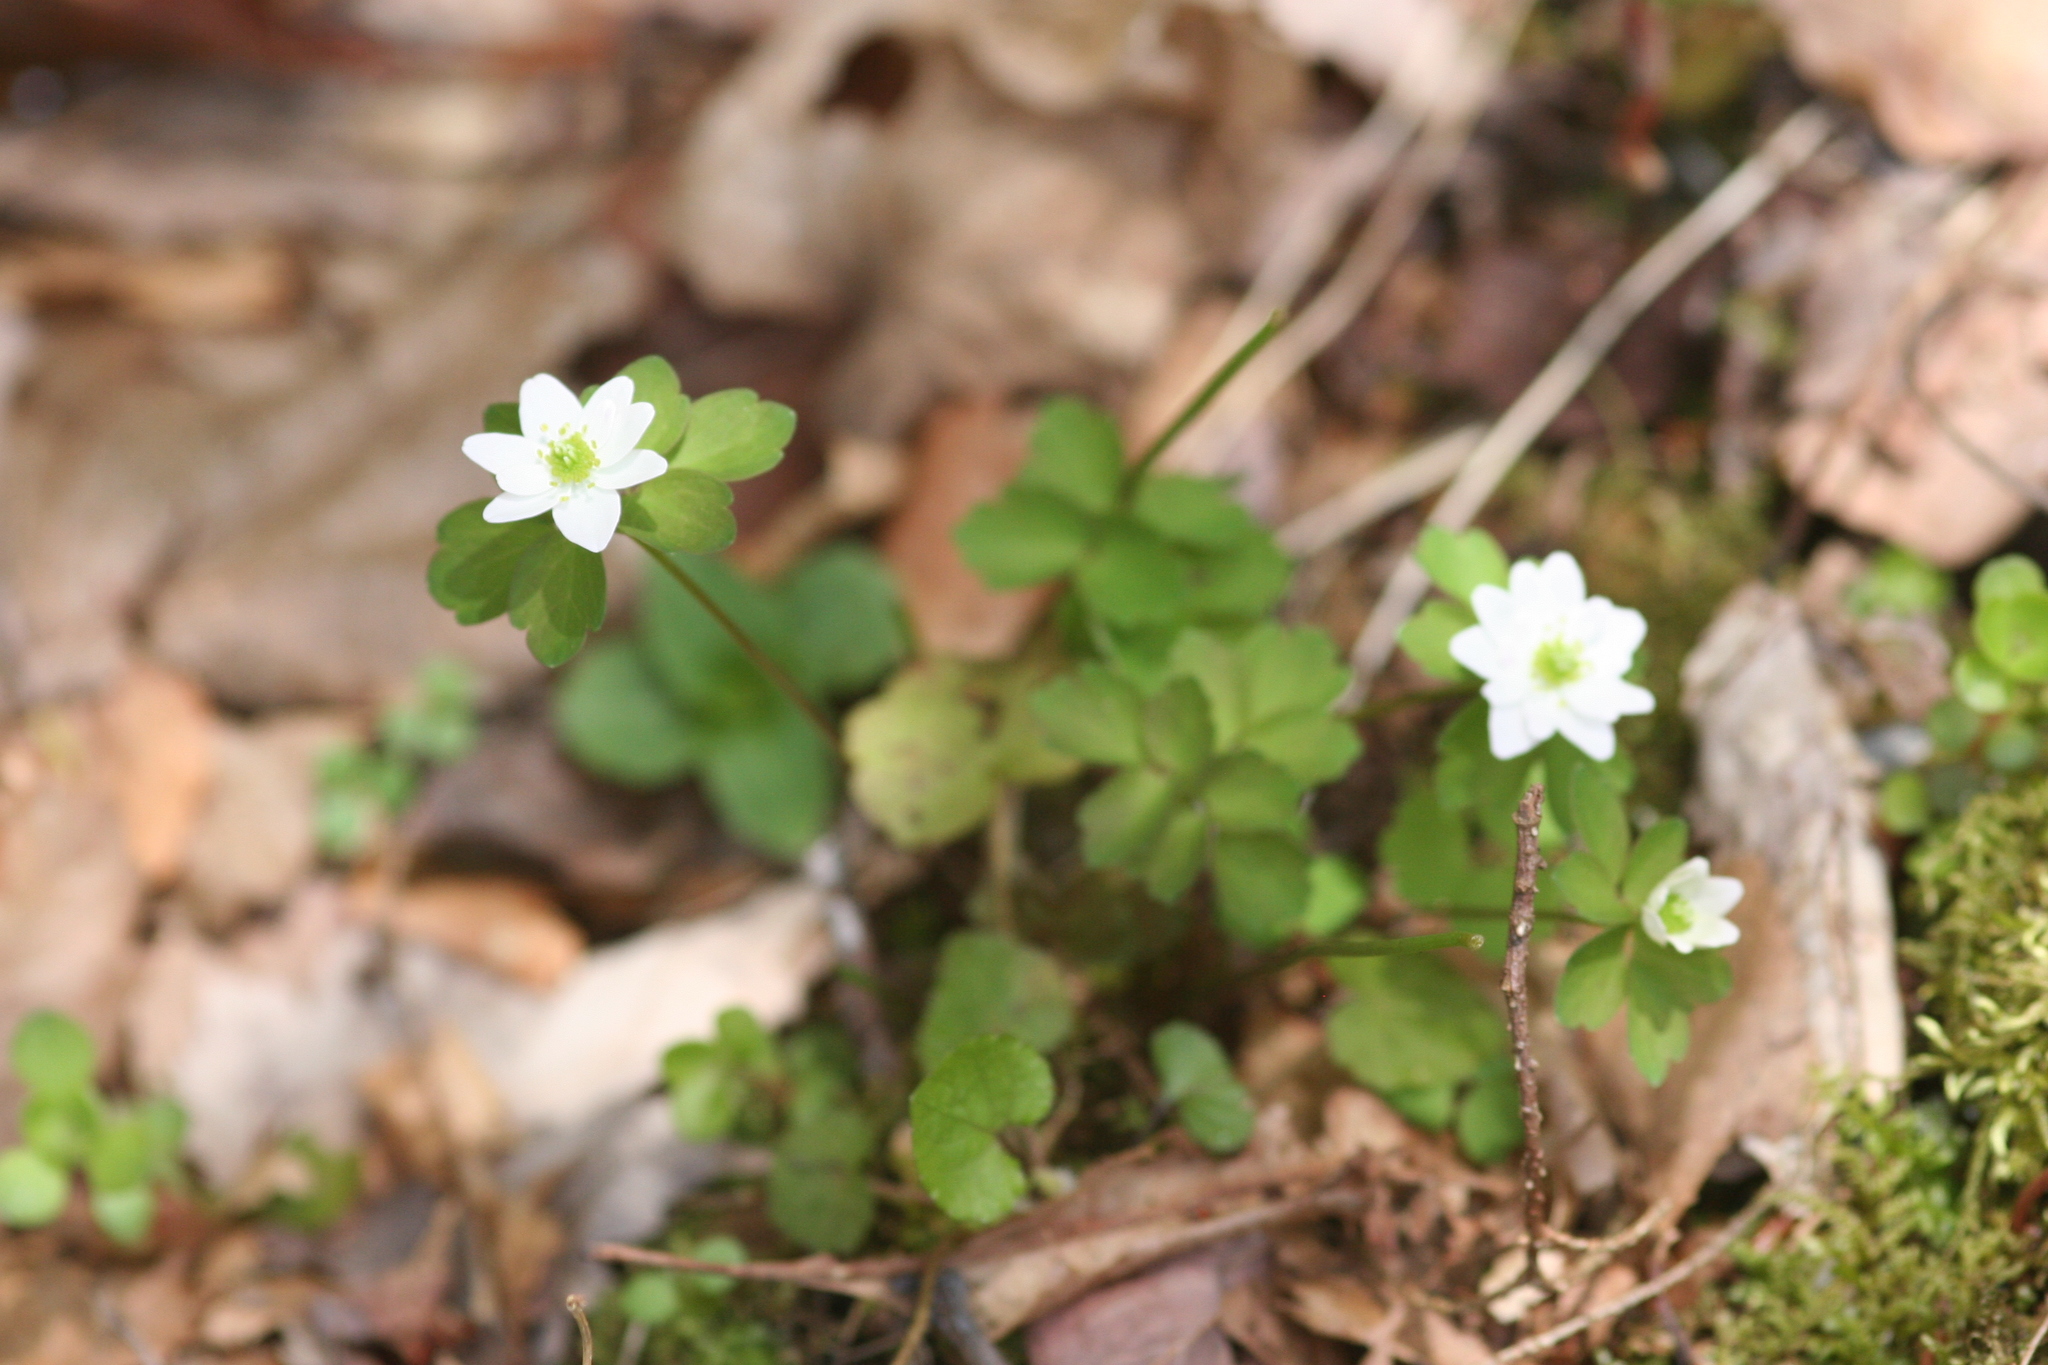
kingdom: Plantae
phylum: Tracheophyta
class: Magnoliopsida
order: Ranunculales
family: Ranunculaceae
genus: Thalictrum
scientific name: Thalictrum thalictroides
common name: Rue-anemone
